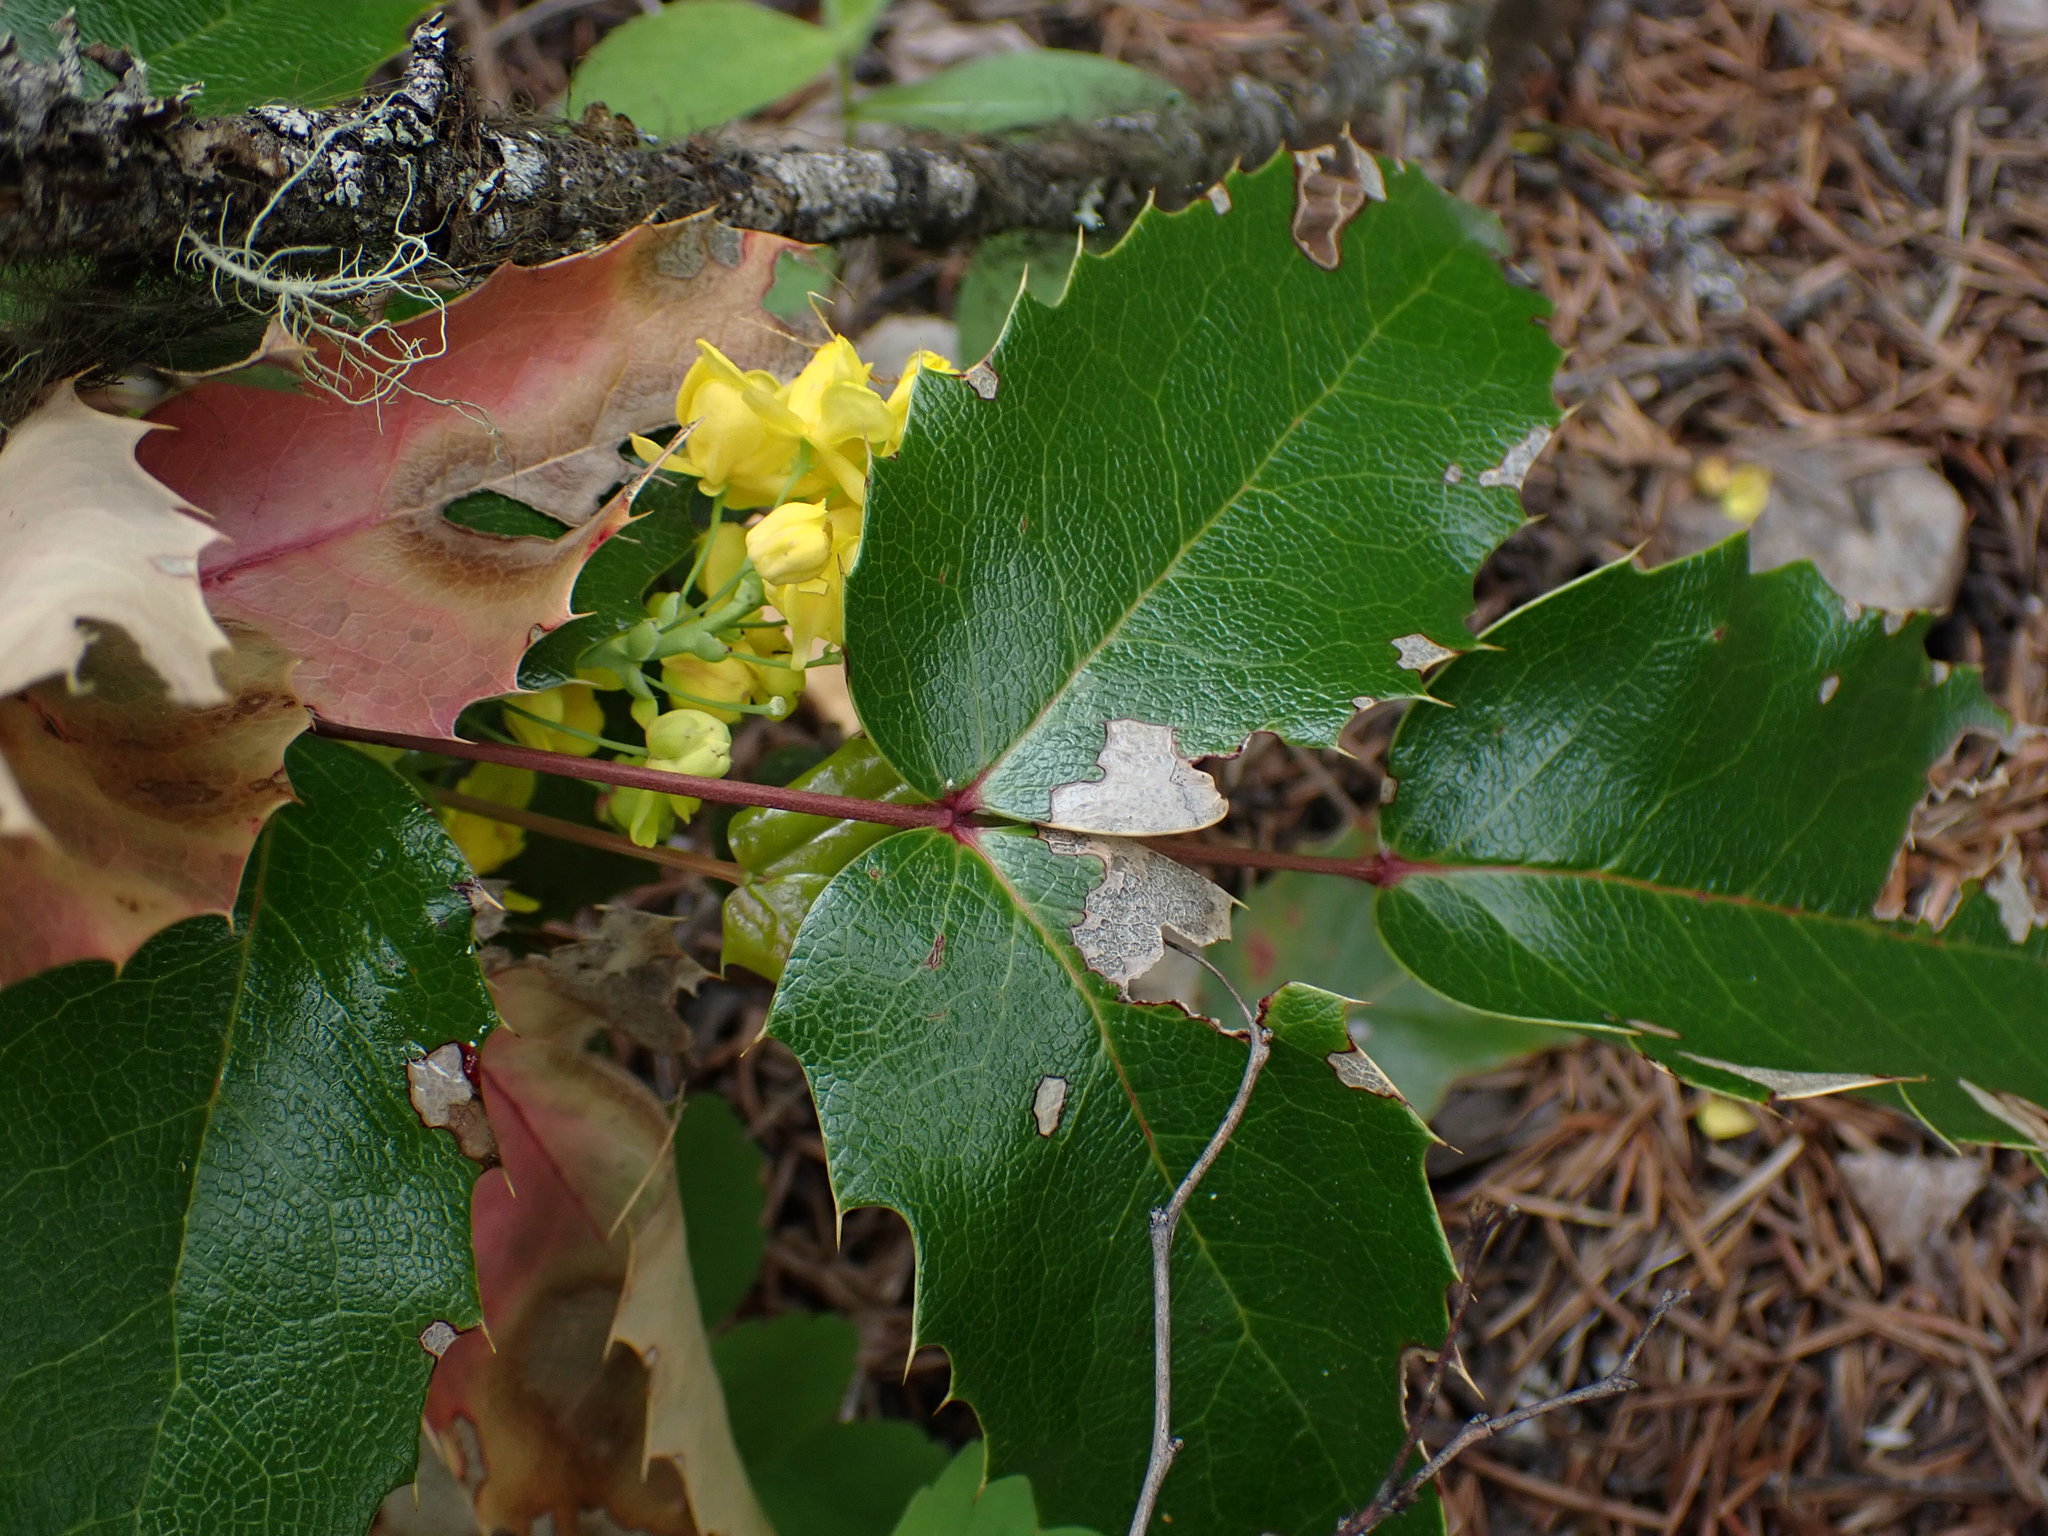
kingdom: Plantae
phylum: Tracheophyta
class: Magnoliopsida
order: Ranunculales
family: Berberidaceae
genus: Mahonia
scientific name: Mahonia aquifolium
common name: Oregon-grape
